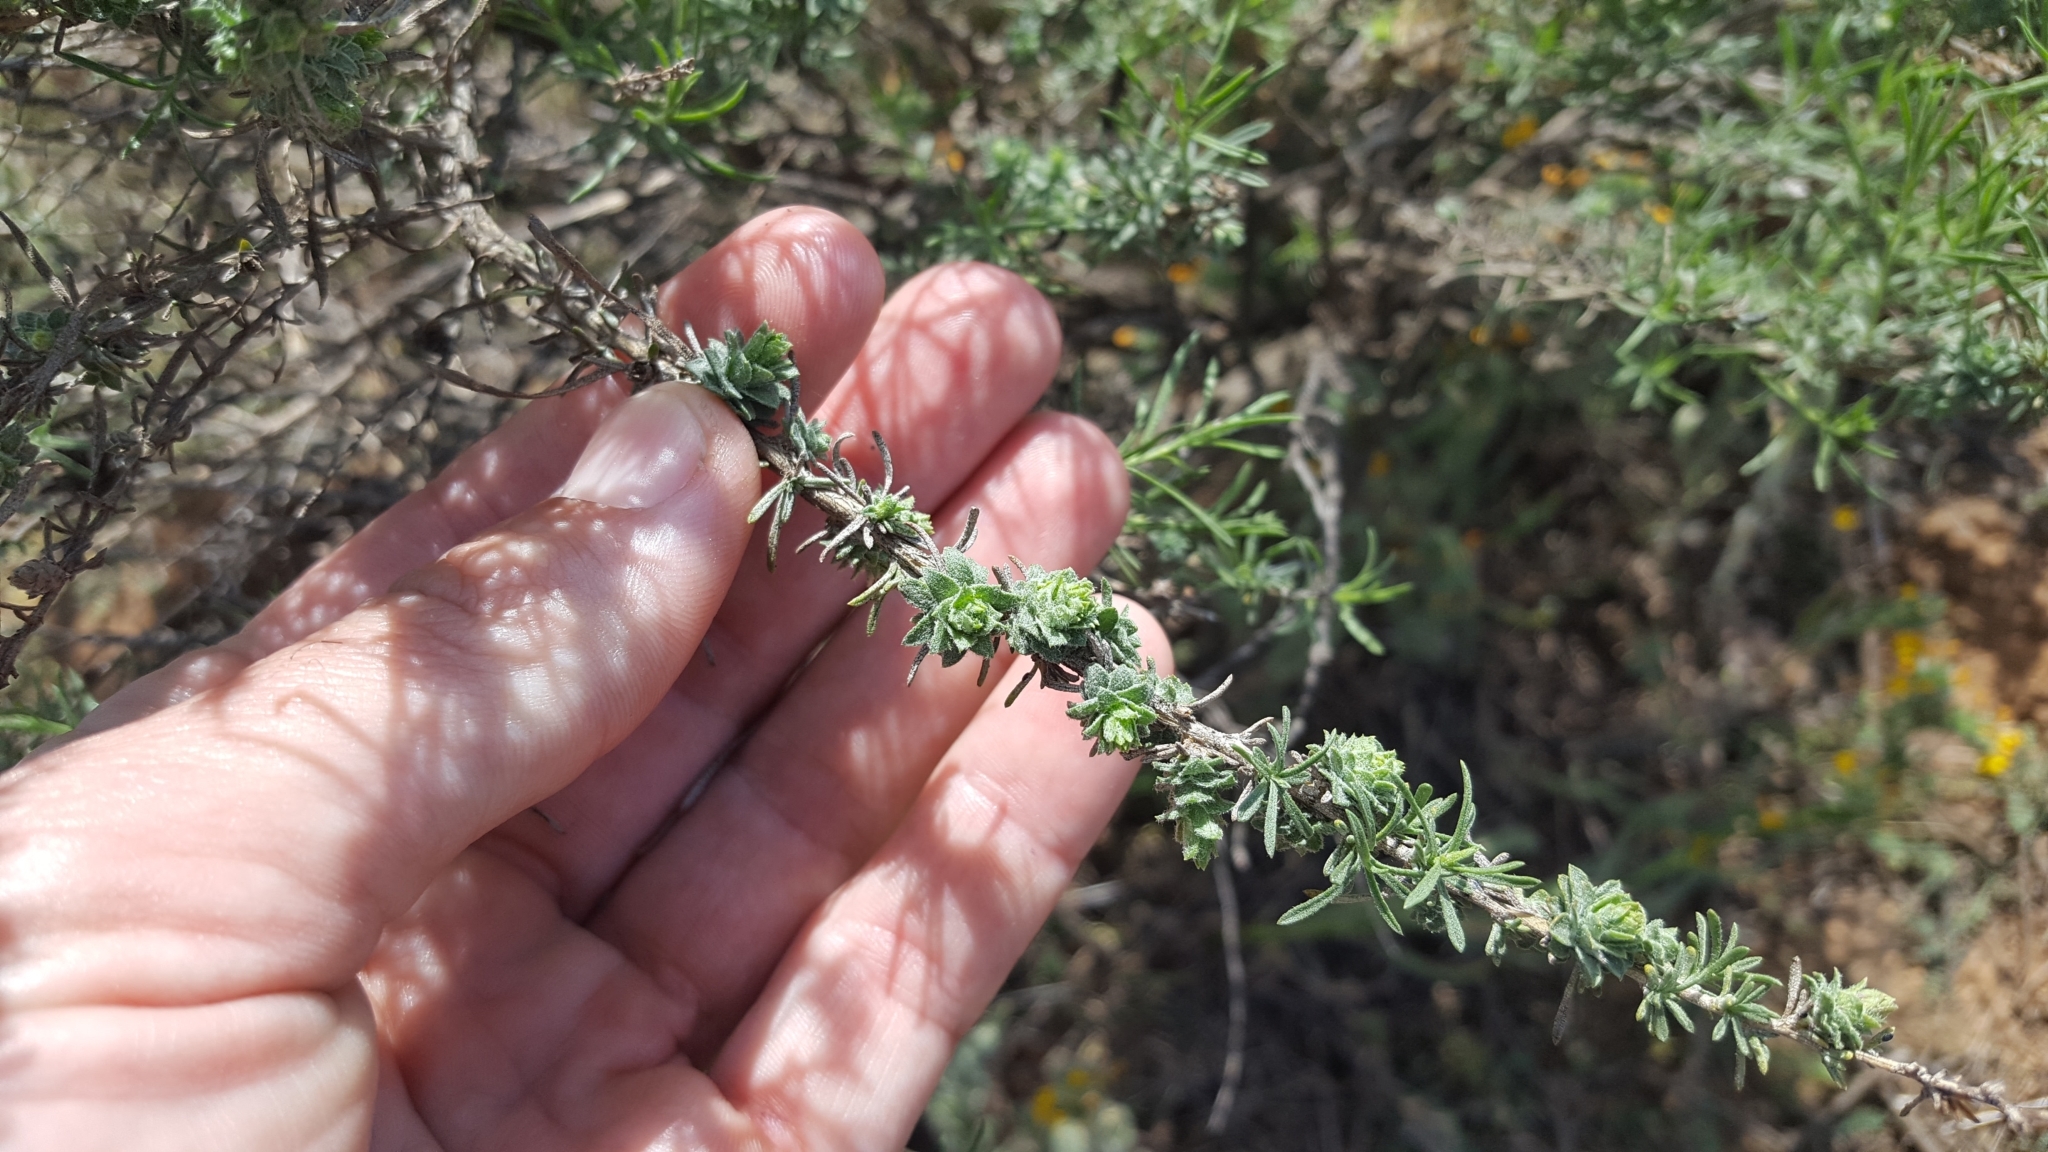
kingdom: Plantae
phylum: Tracheophyta
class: Magnoliopsida
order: Asterales
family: Asteraceae
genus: Ericameria
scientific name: Ericameria palmeri
